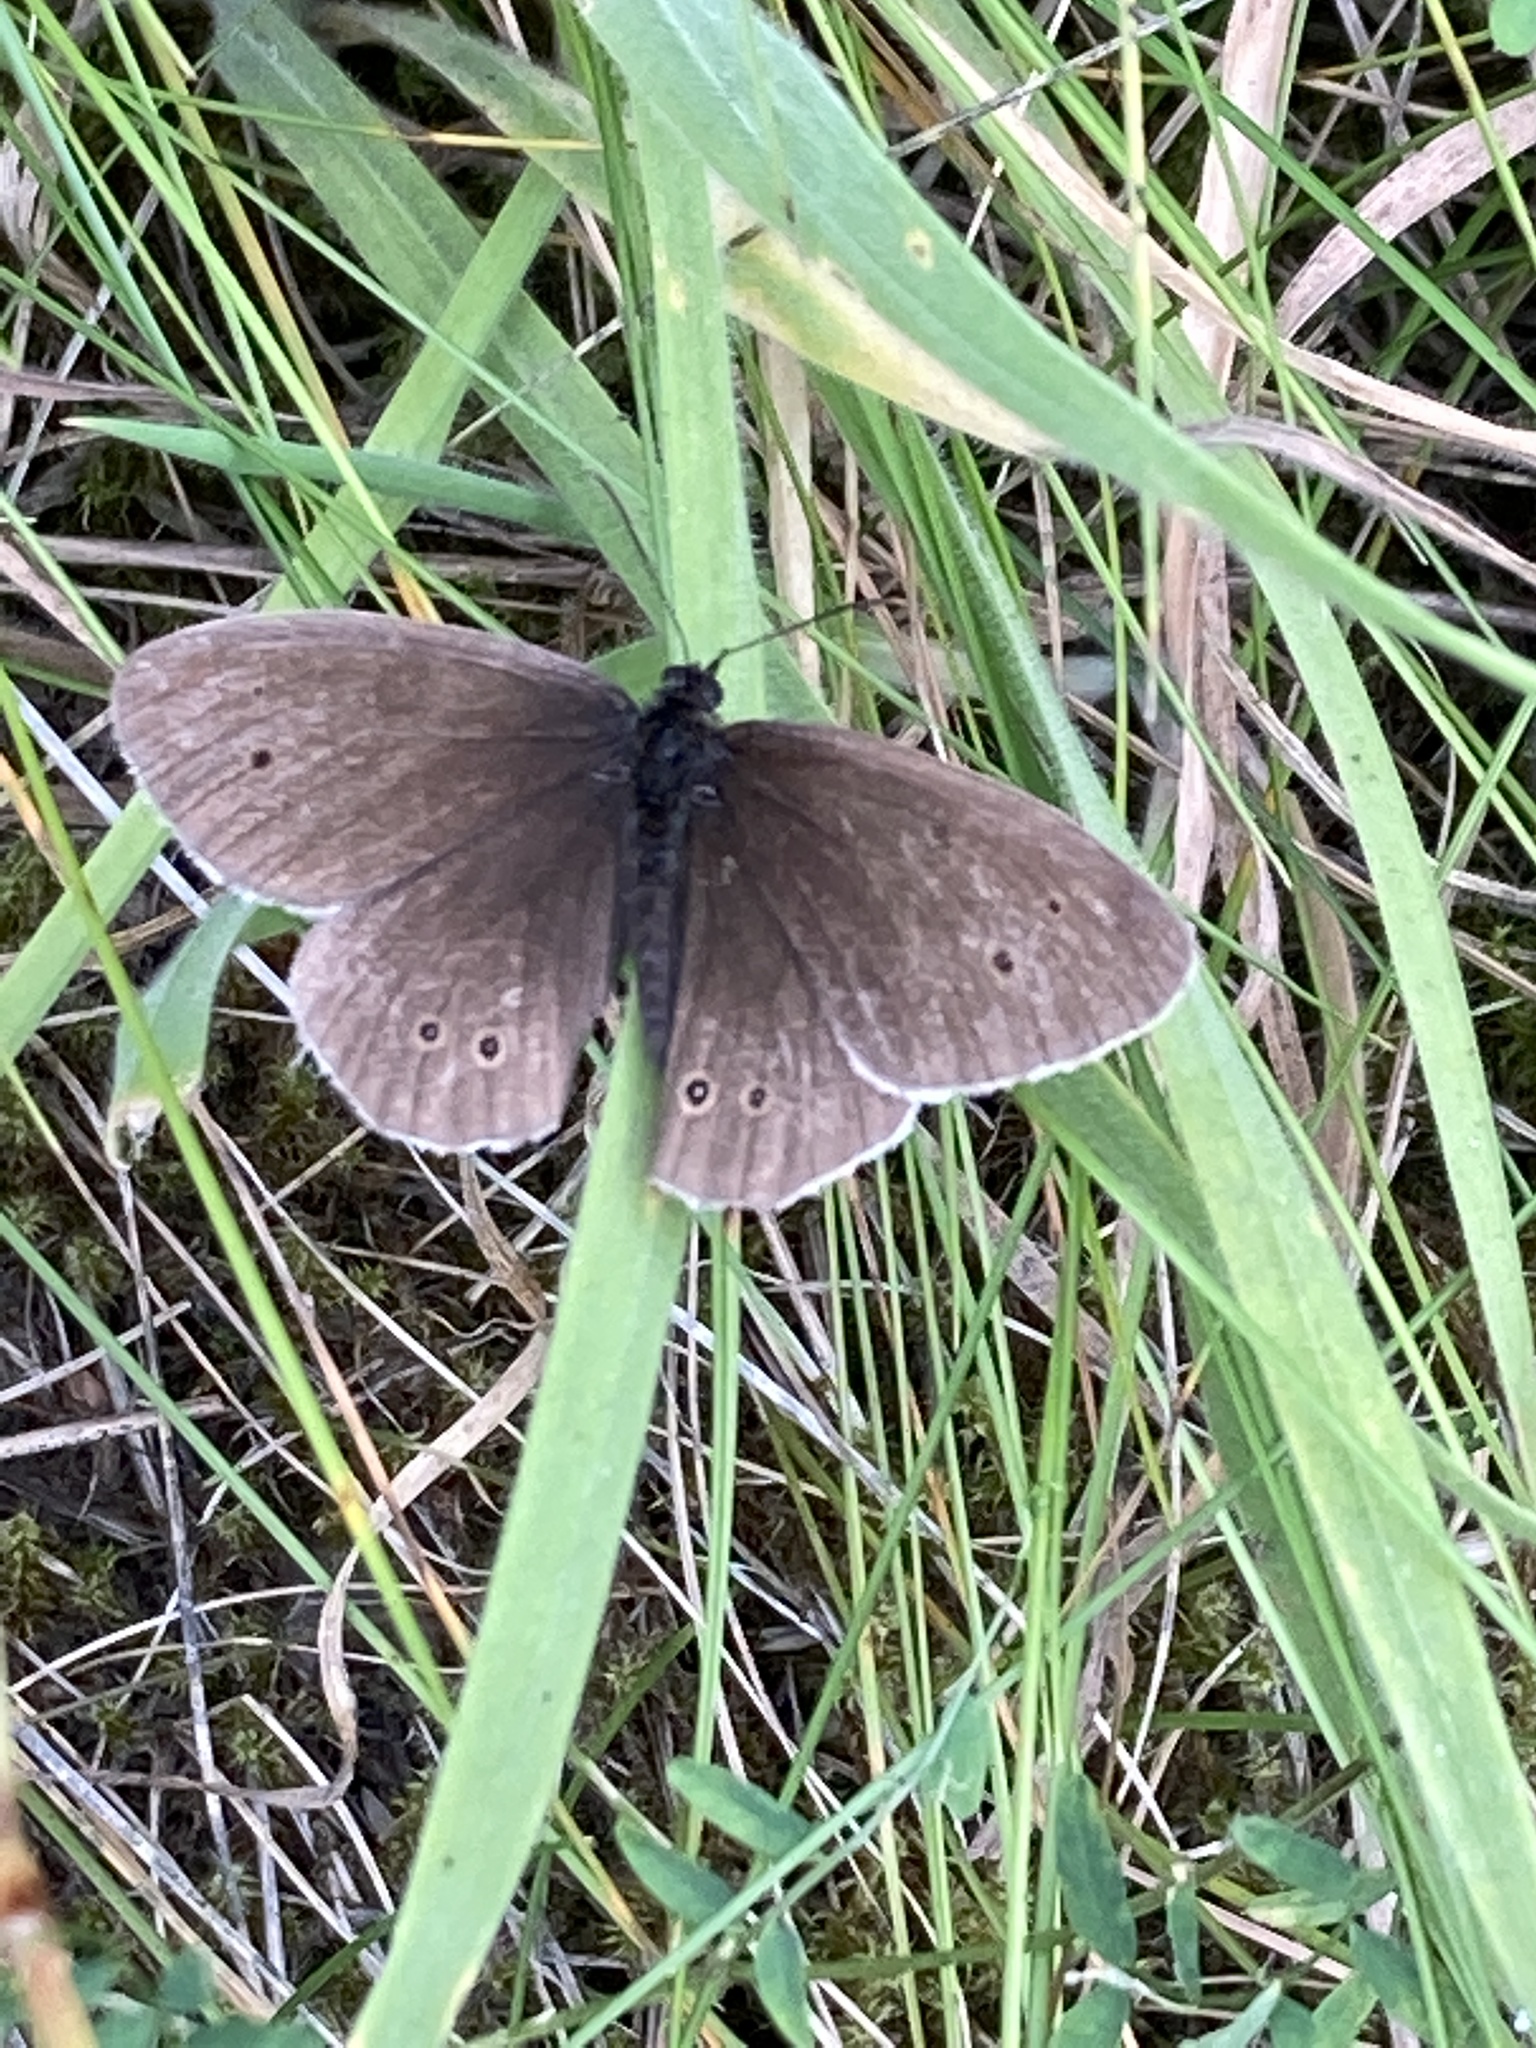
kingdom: Animalia
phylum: Arthropoda
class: Insecta
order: Lepidoptera
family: Nymphalidae
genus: Aphantopus
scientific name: Aphantopus hyperantus
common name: Ringlet
